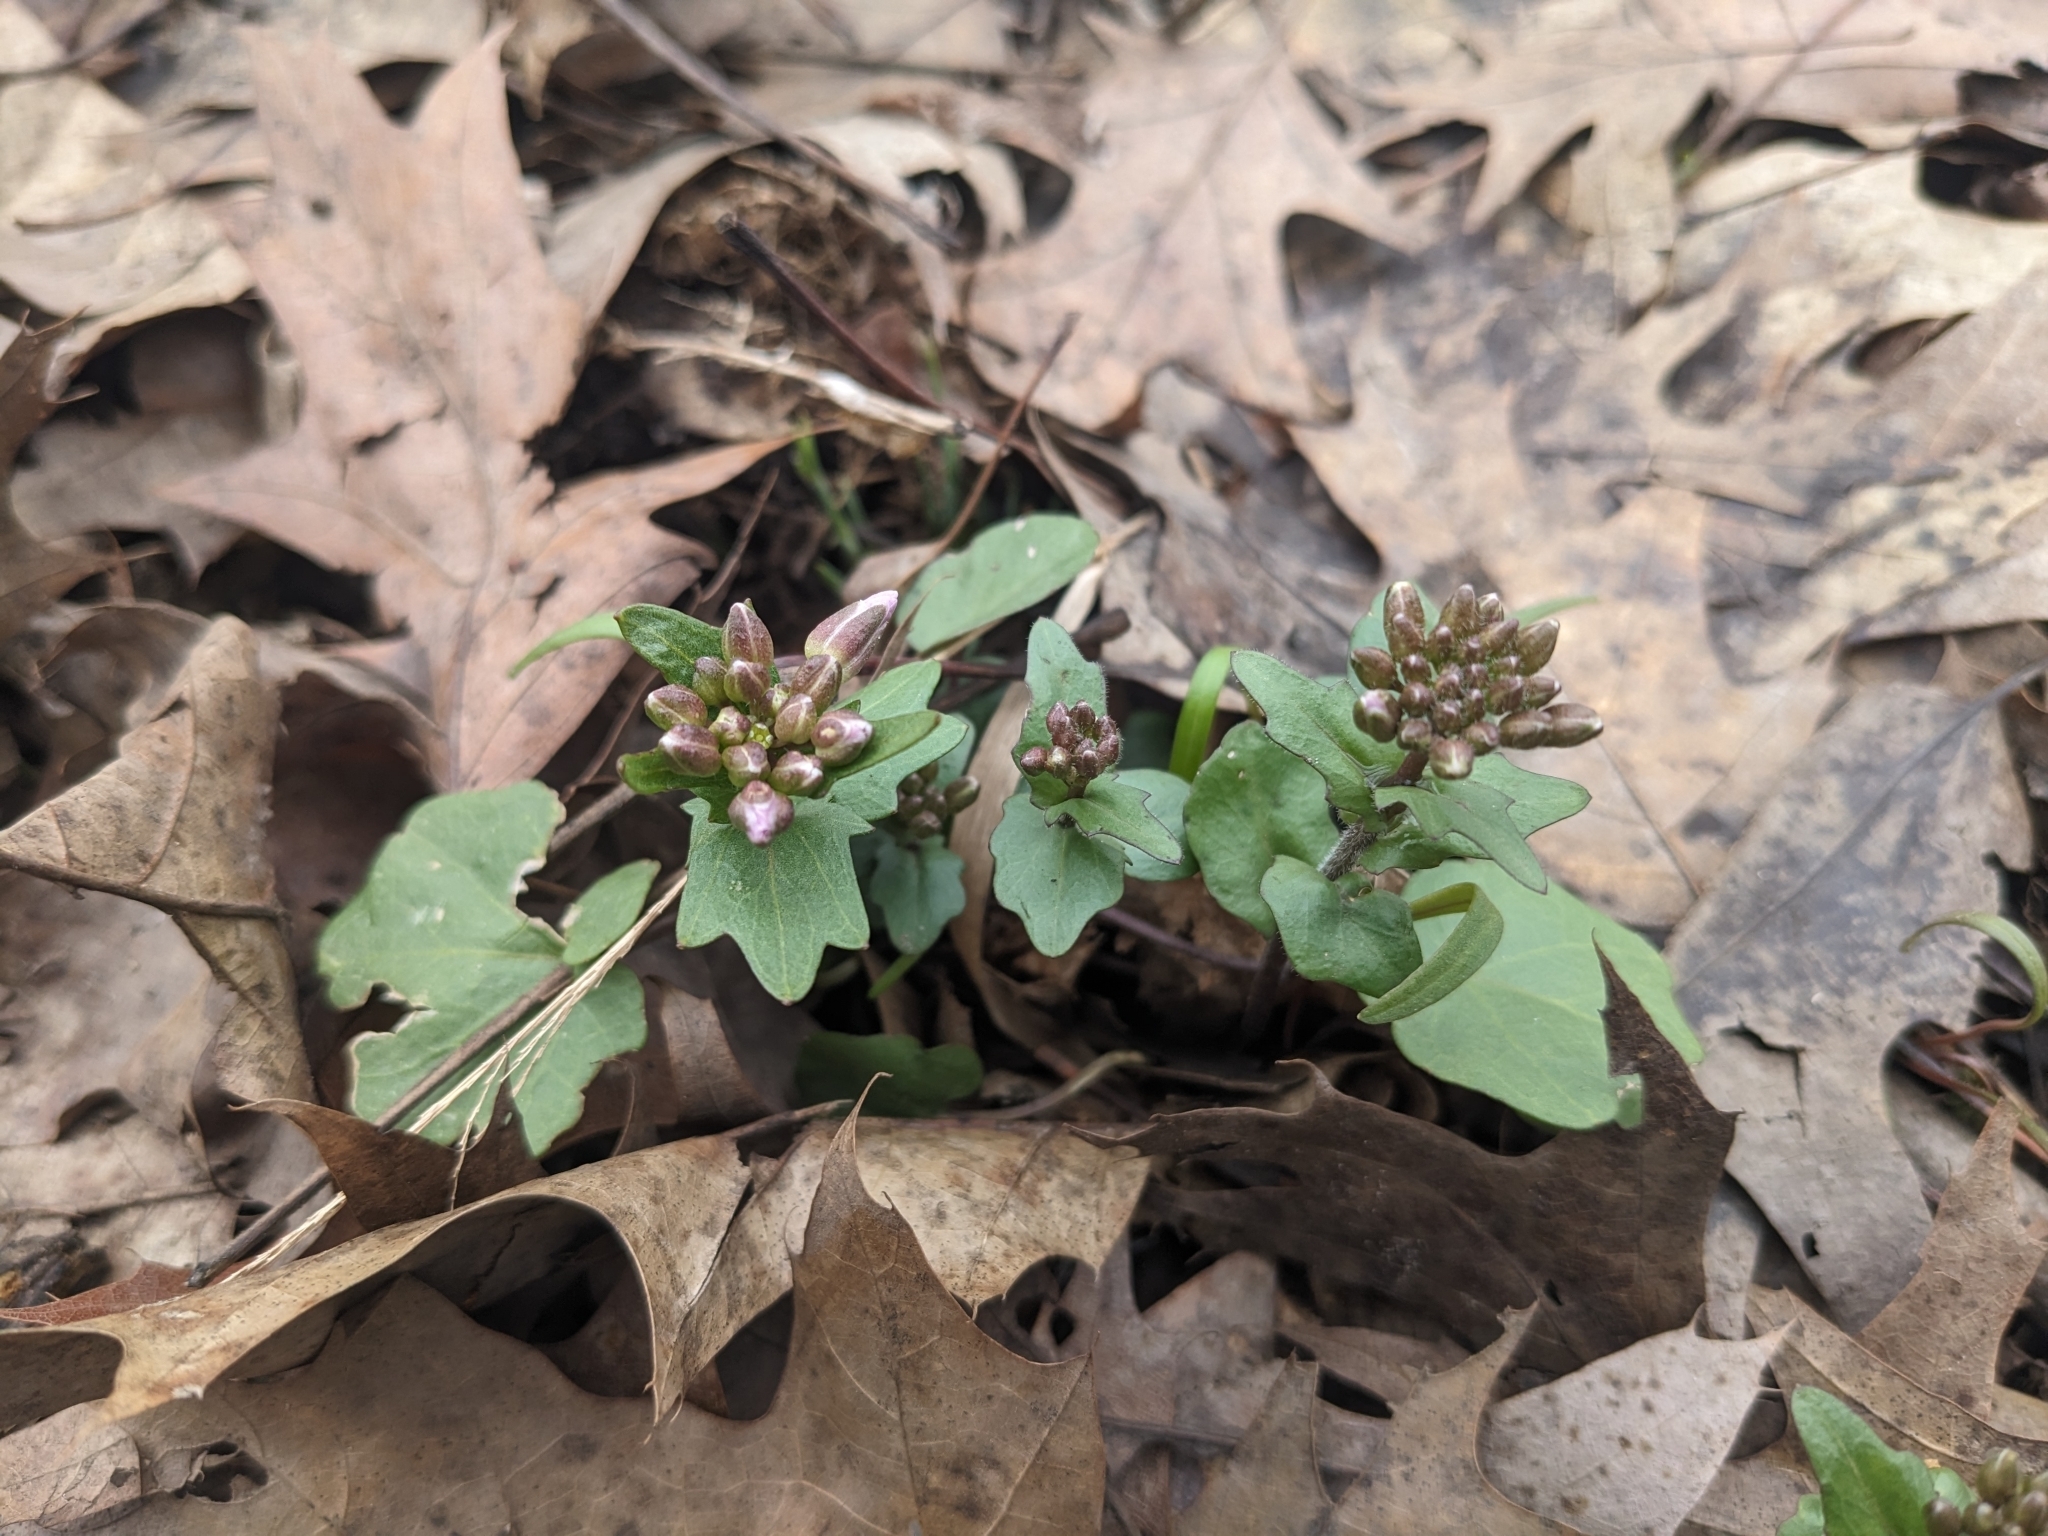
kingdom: Plantae
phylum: Tracheophyta
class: Magnoliopsida
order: Brassicales
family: Brassicaceae
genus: Cardamine
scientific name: Cardamine douglassii
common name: Purple cress
